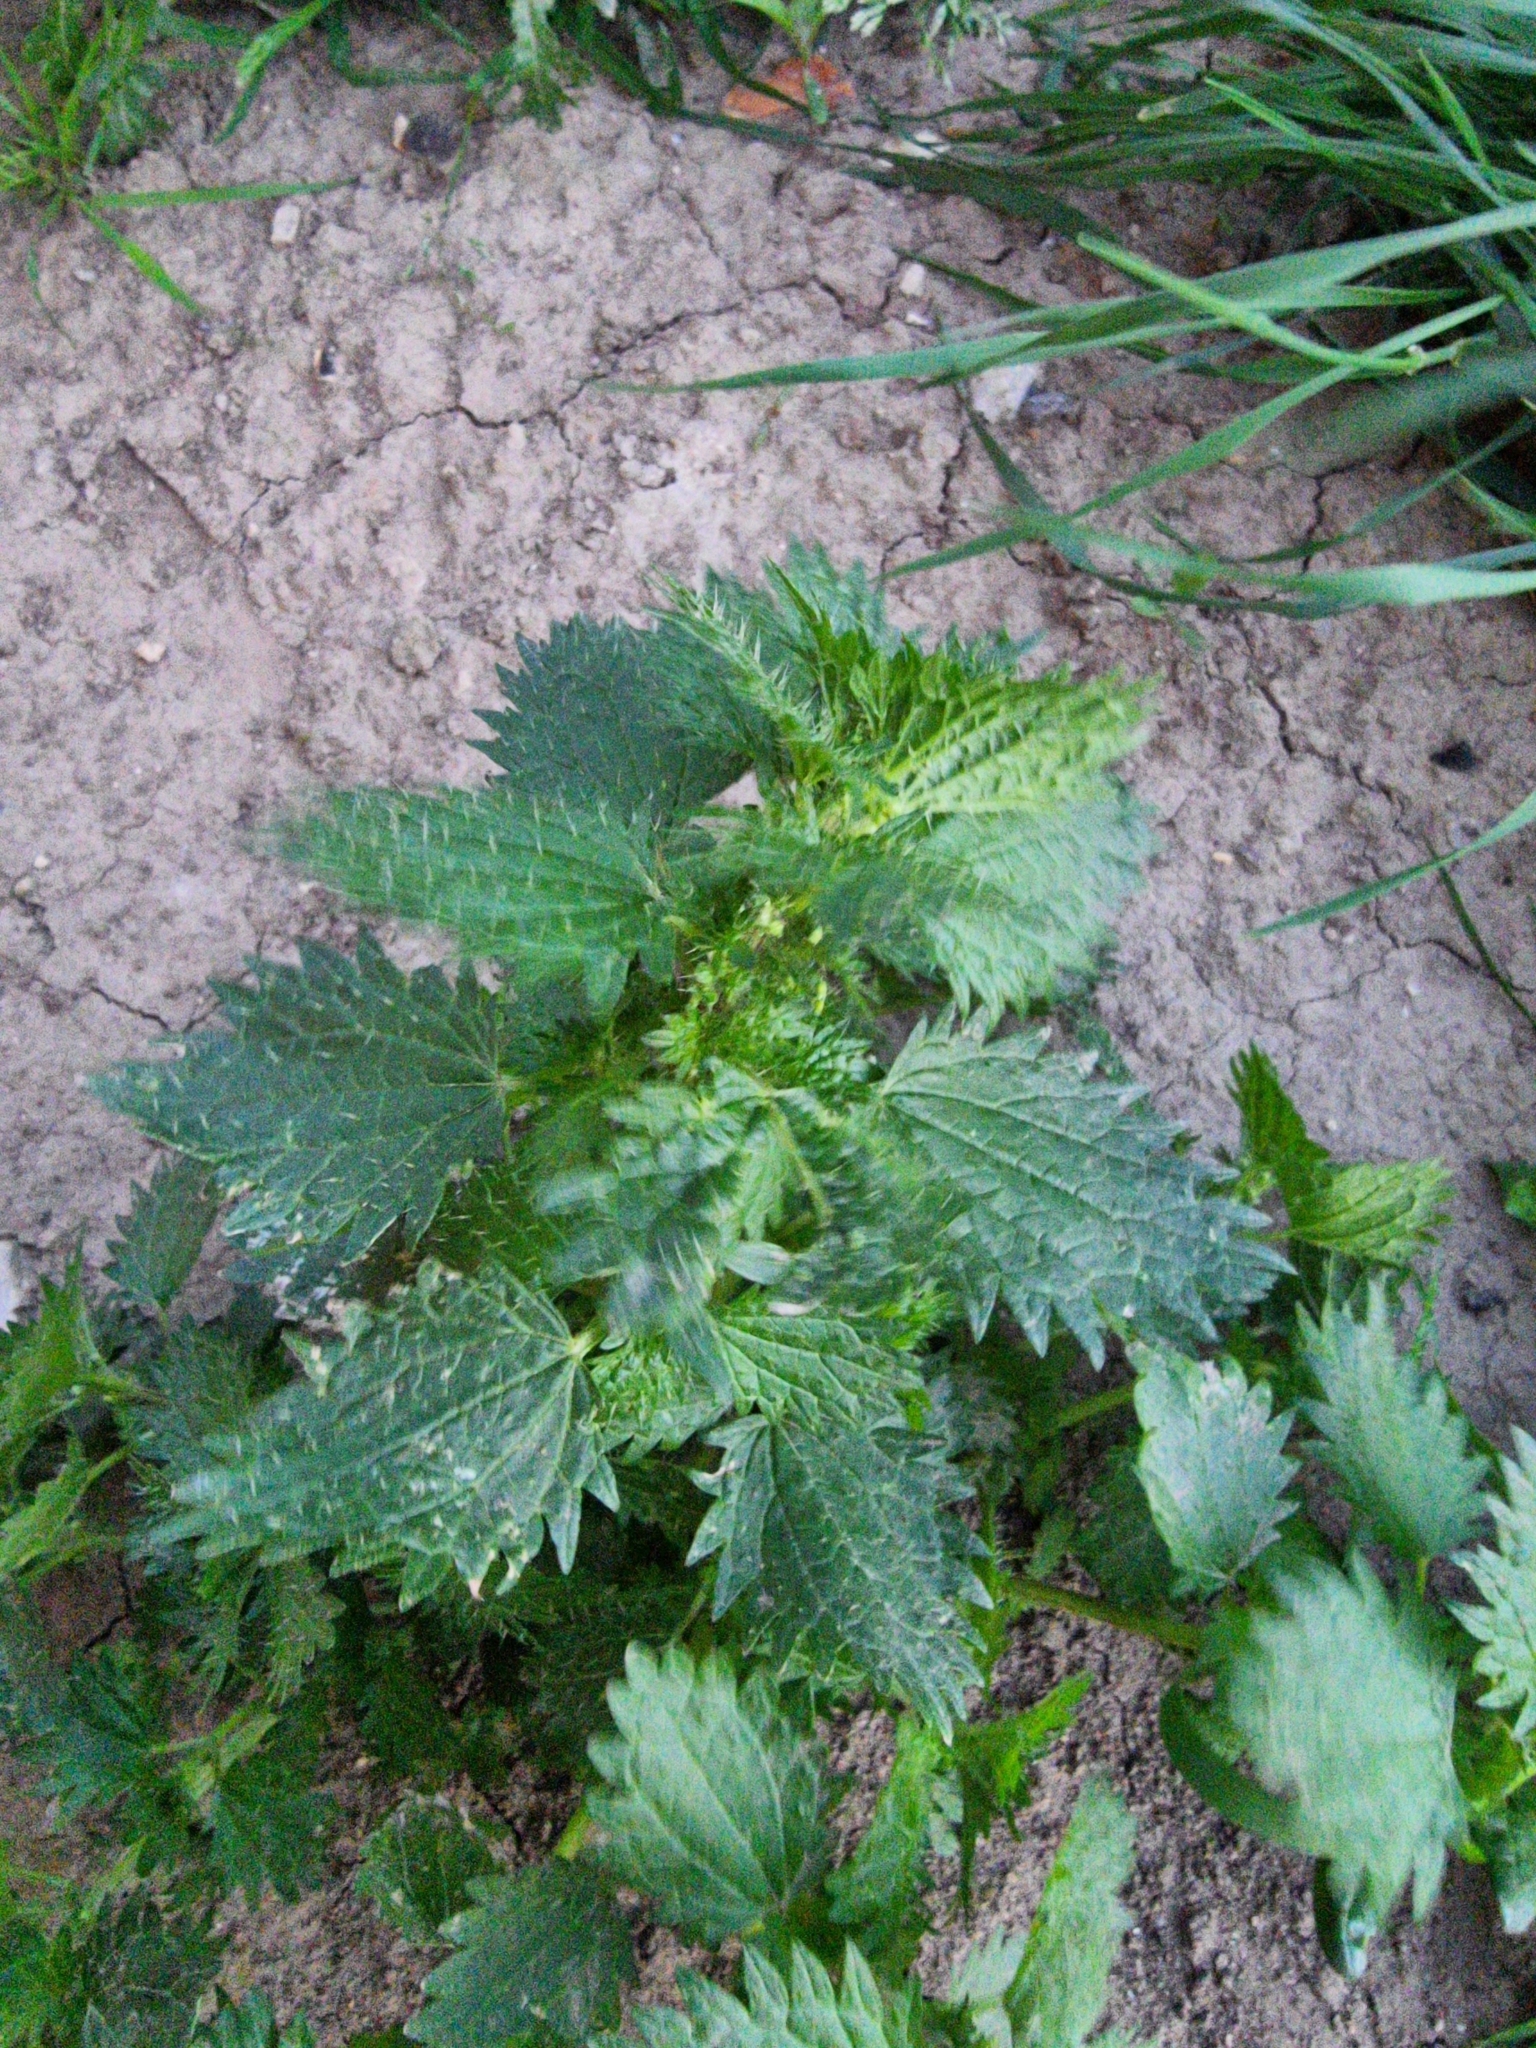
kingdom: Plantae
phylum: Tracheophyta
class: Magnoliopsida
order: Rosales
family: Urticaceae
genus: Urtica
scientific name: Urtica urens
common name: Dwarf nettle
